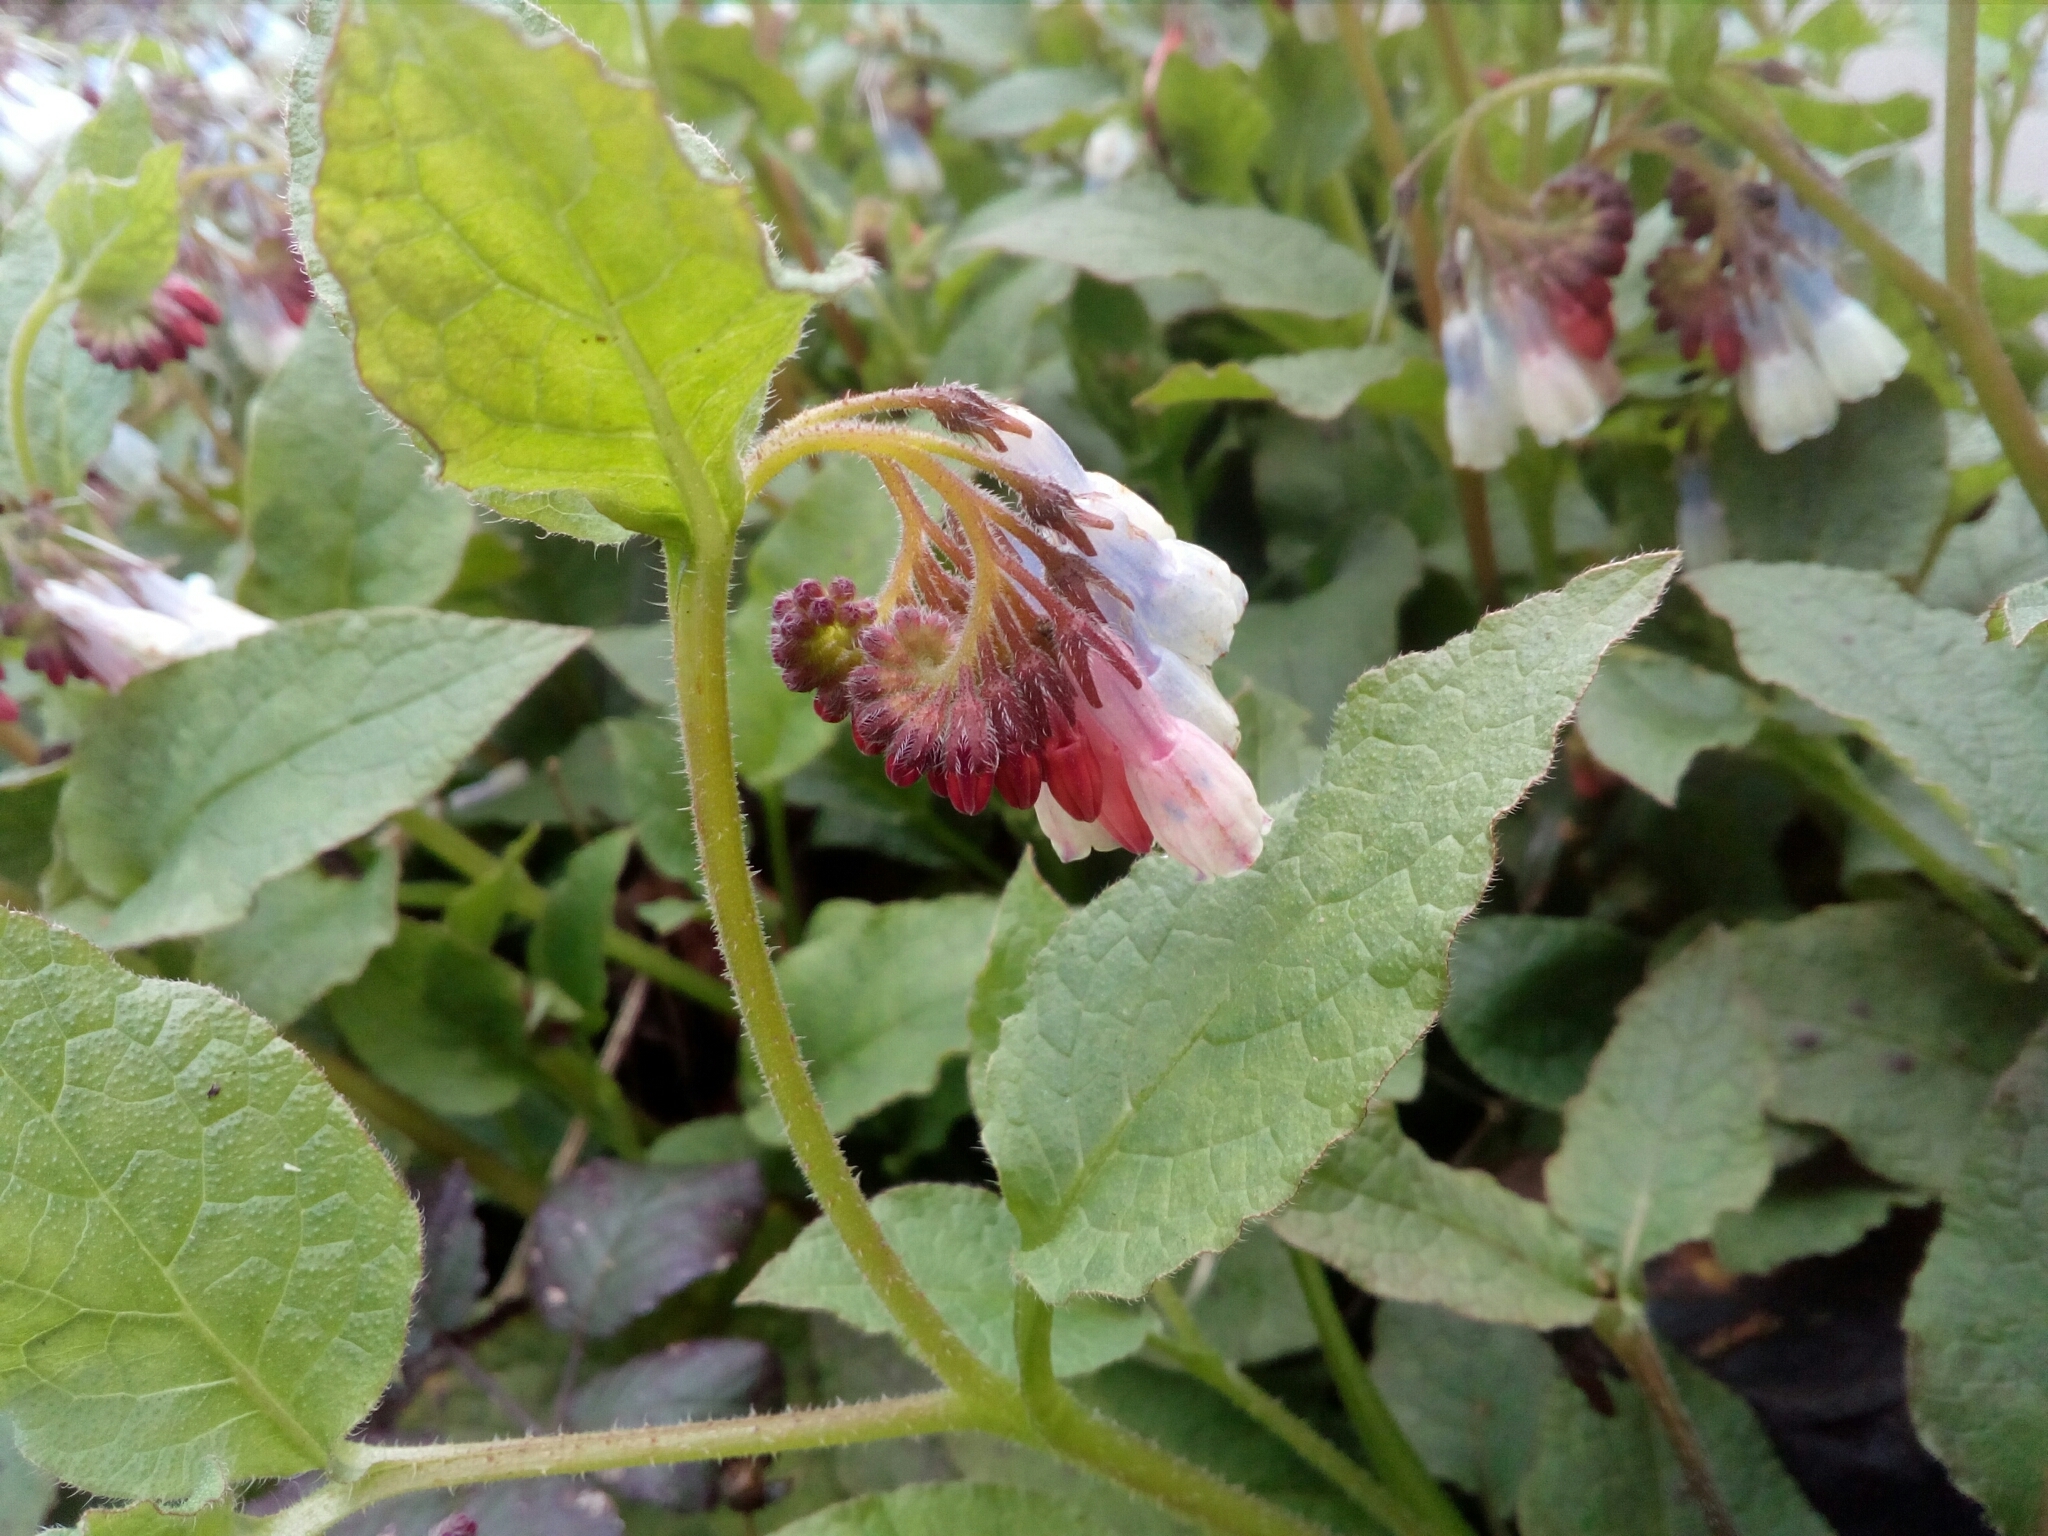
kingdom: Plantae
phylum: Tracheophyta
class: Magnoliopsida
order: Boraginales
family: Boraginaceae
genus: Symphytum
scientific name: Symphytum hidcotense
